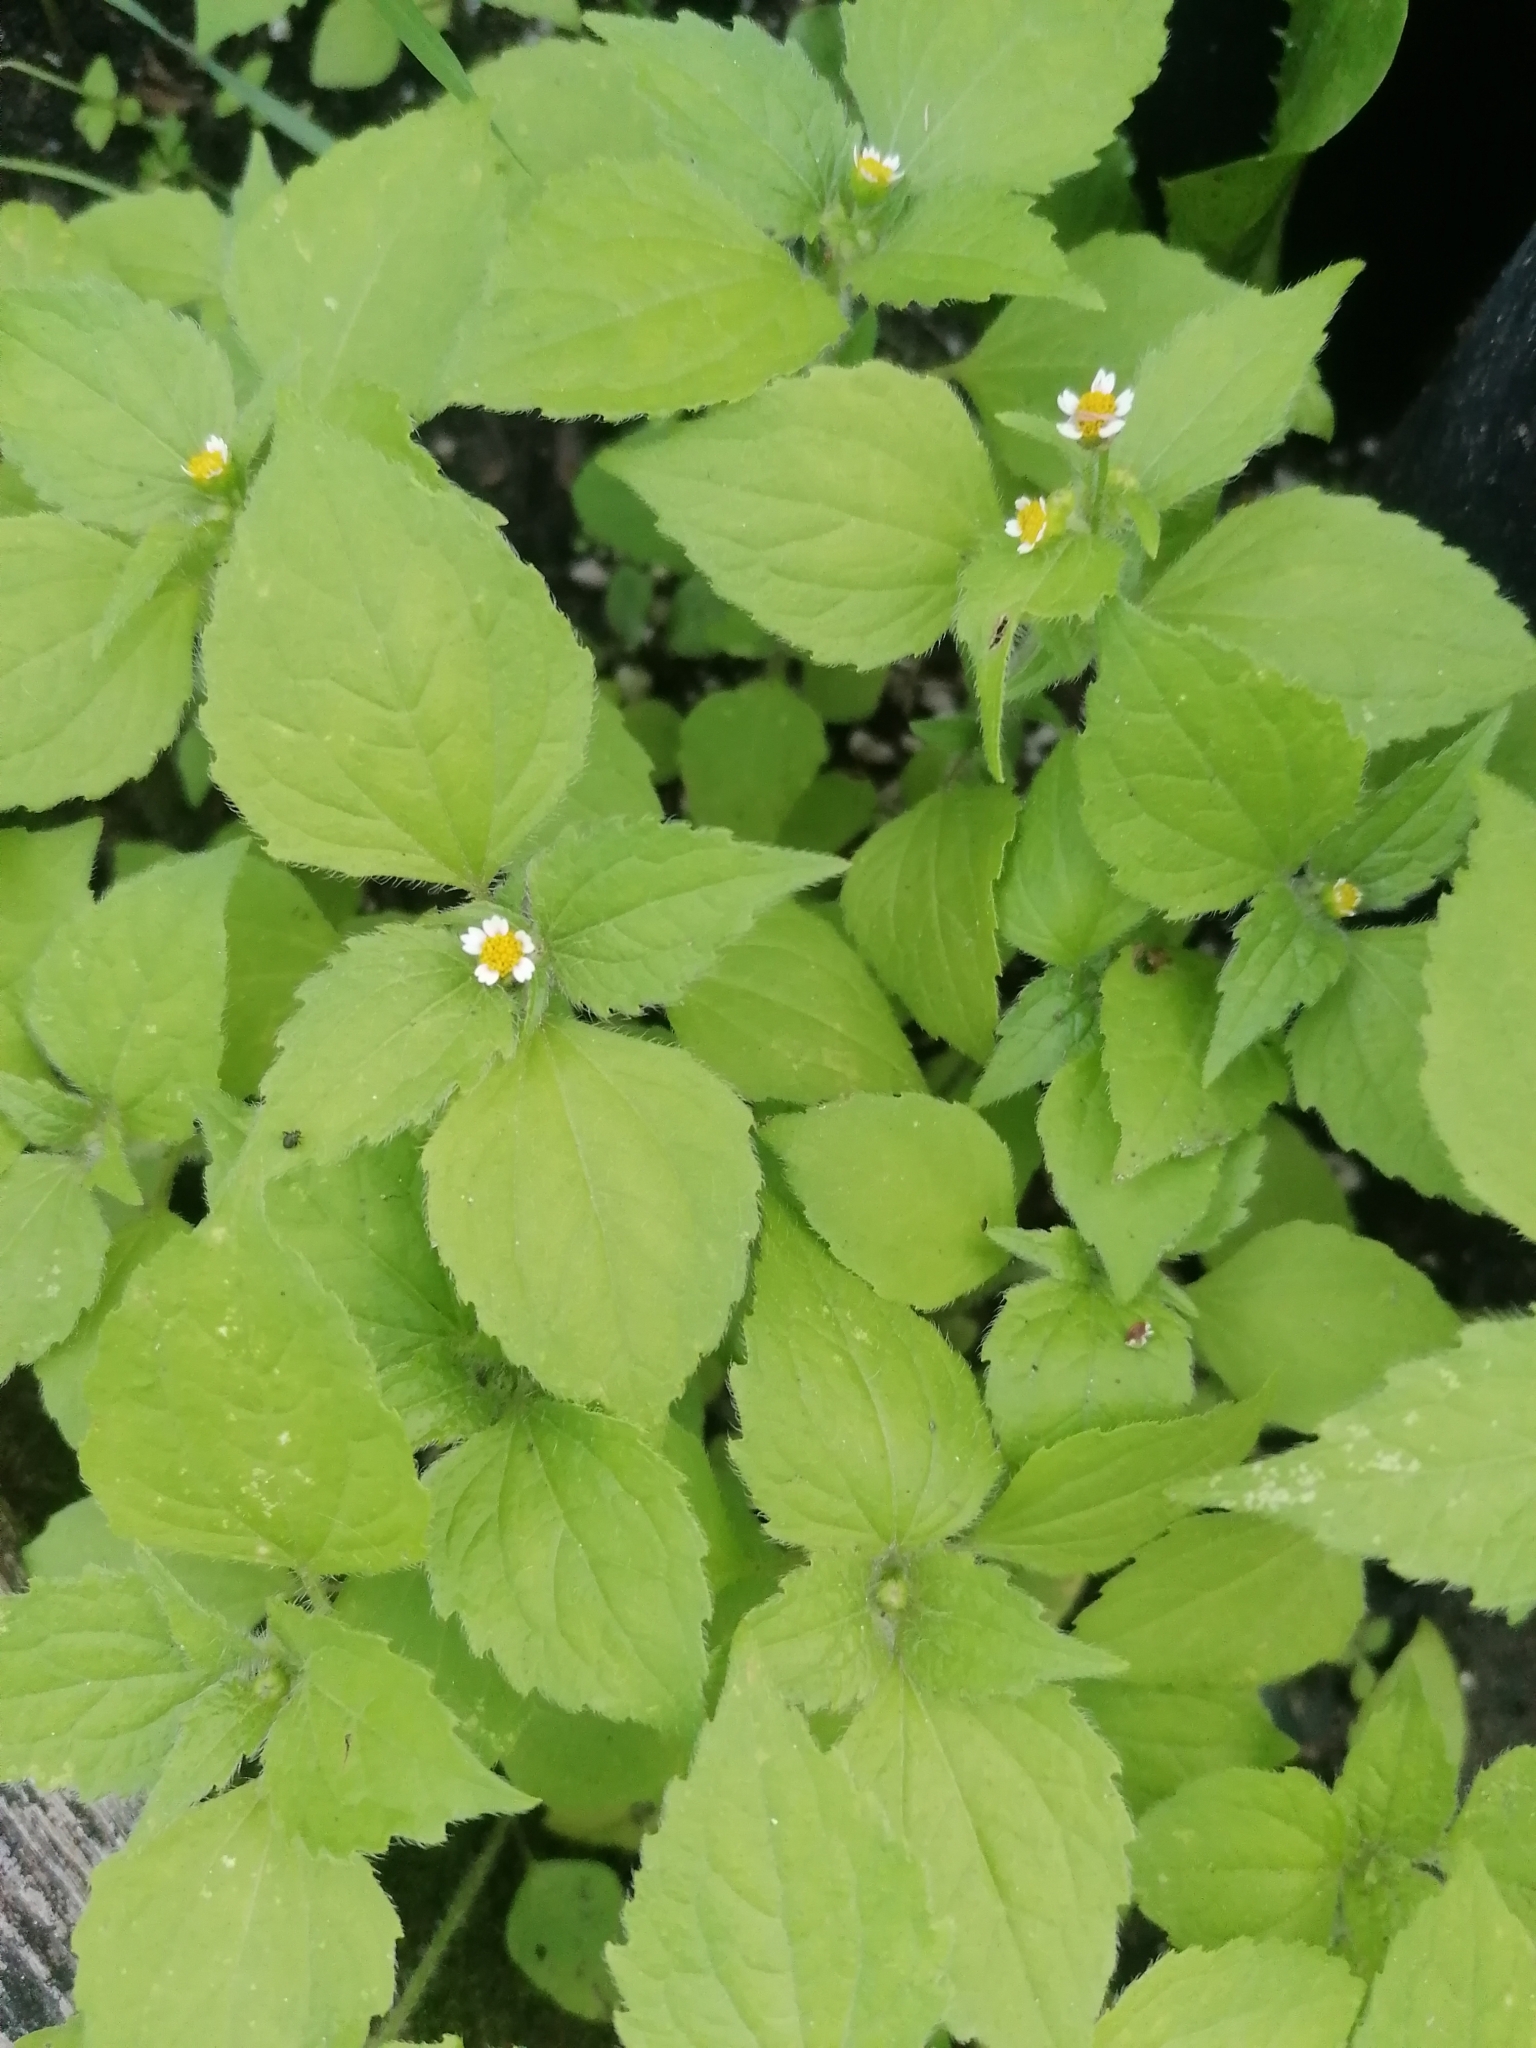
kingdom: Plantae
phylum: Tracheophyta
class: Magnoliopsida
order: Asterales
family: Asteraceae
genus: Galinsoga
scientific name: Galinsoga quadriradiata
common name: Shaggy soldier
